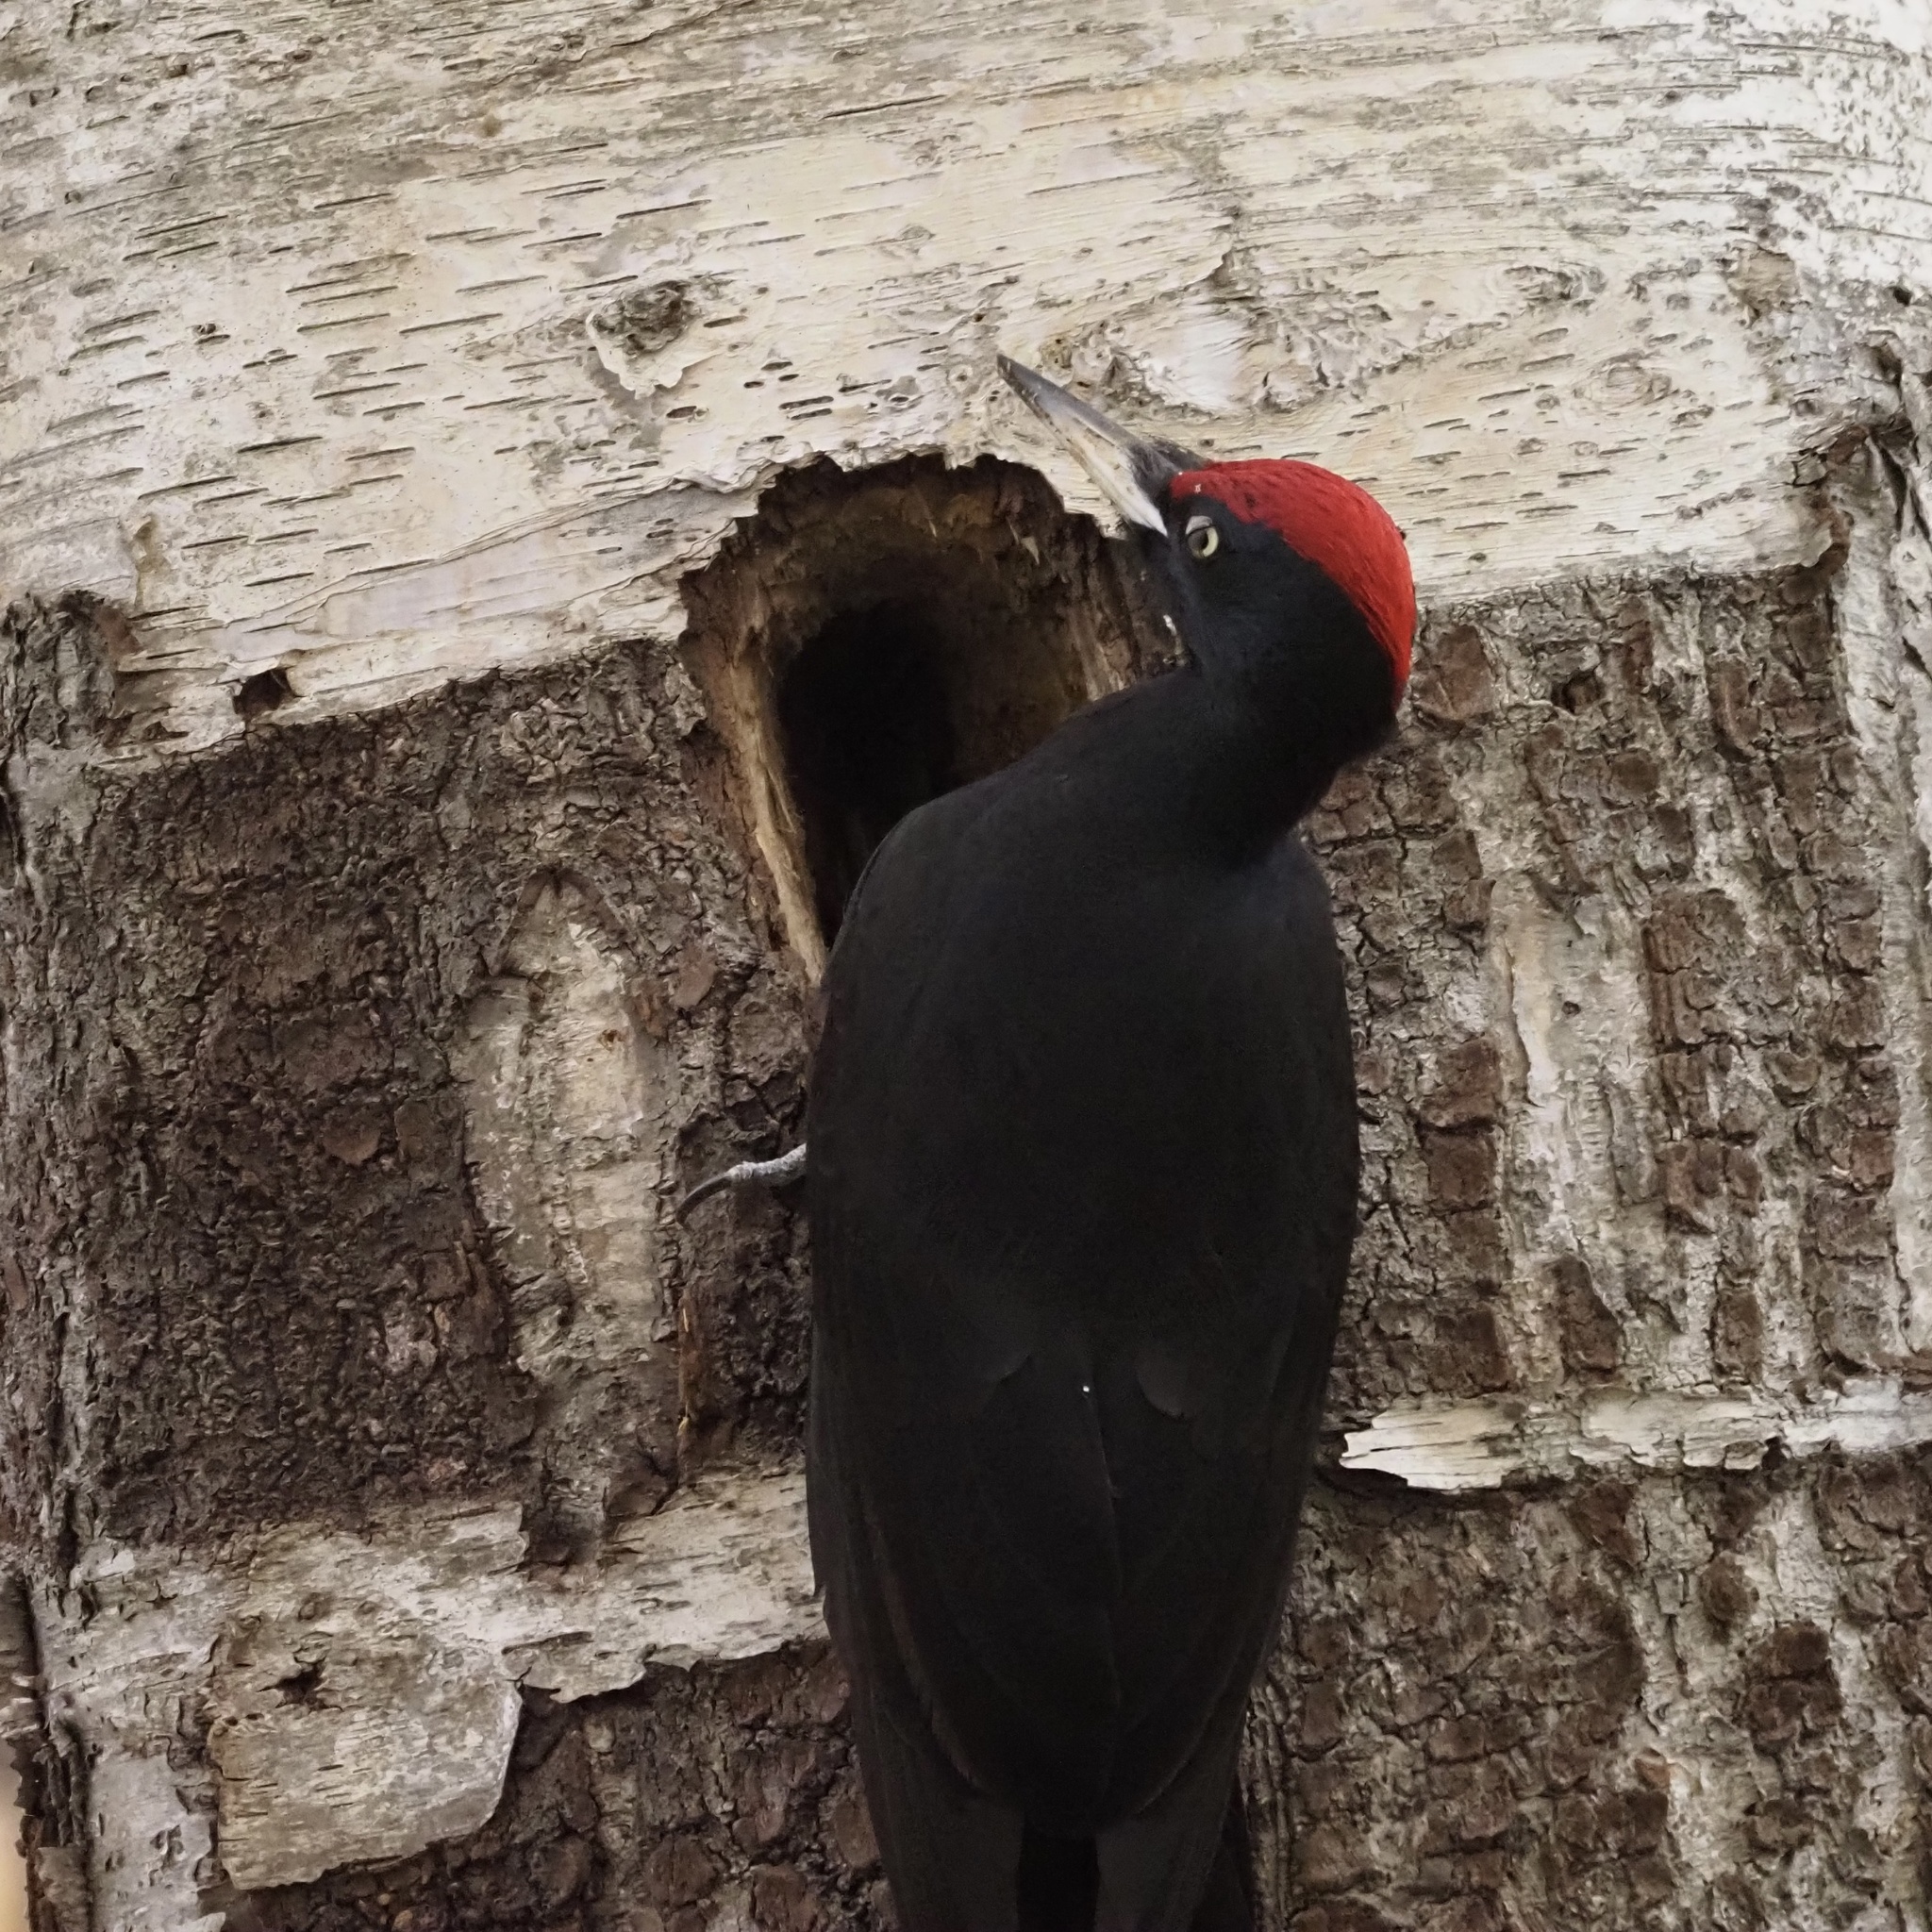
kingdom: Animalia
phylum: Chordata
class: Aves
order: Piciformes
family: Picidae
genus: Dryocopus
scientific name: Dryocopus martius
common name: Black woodpecker
